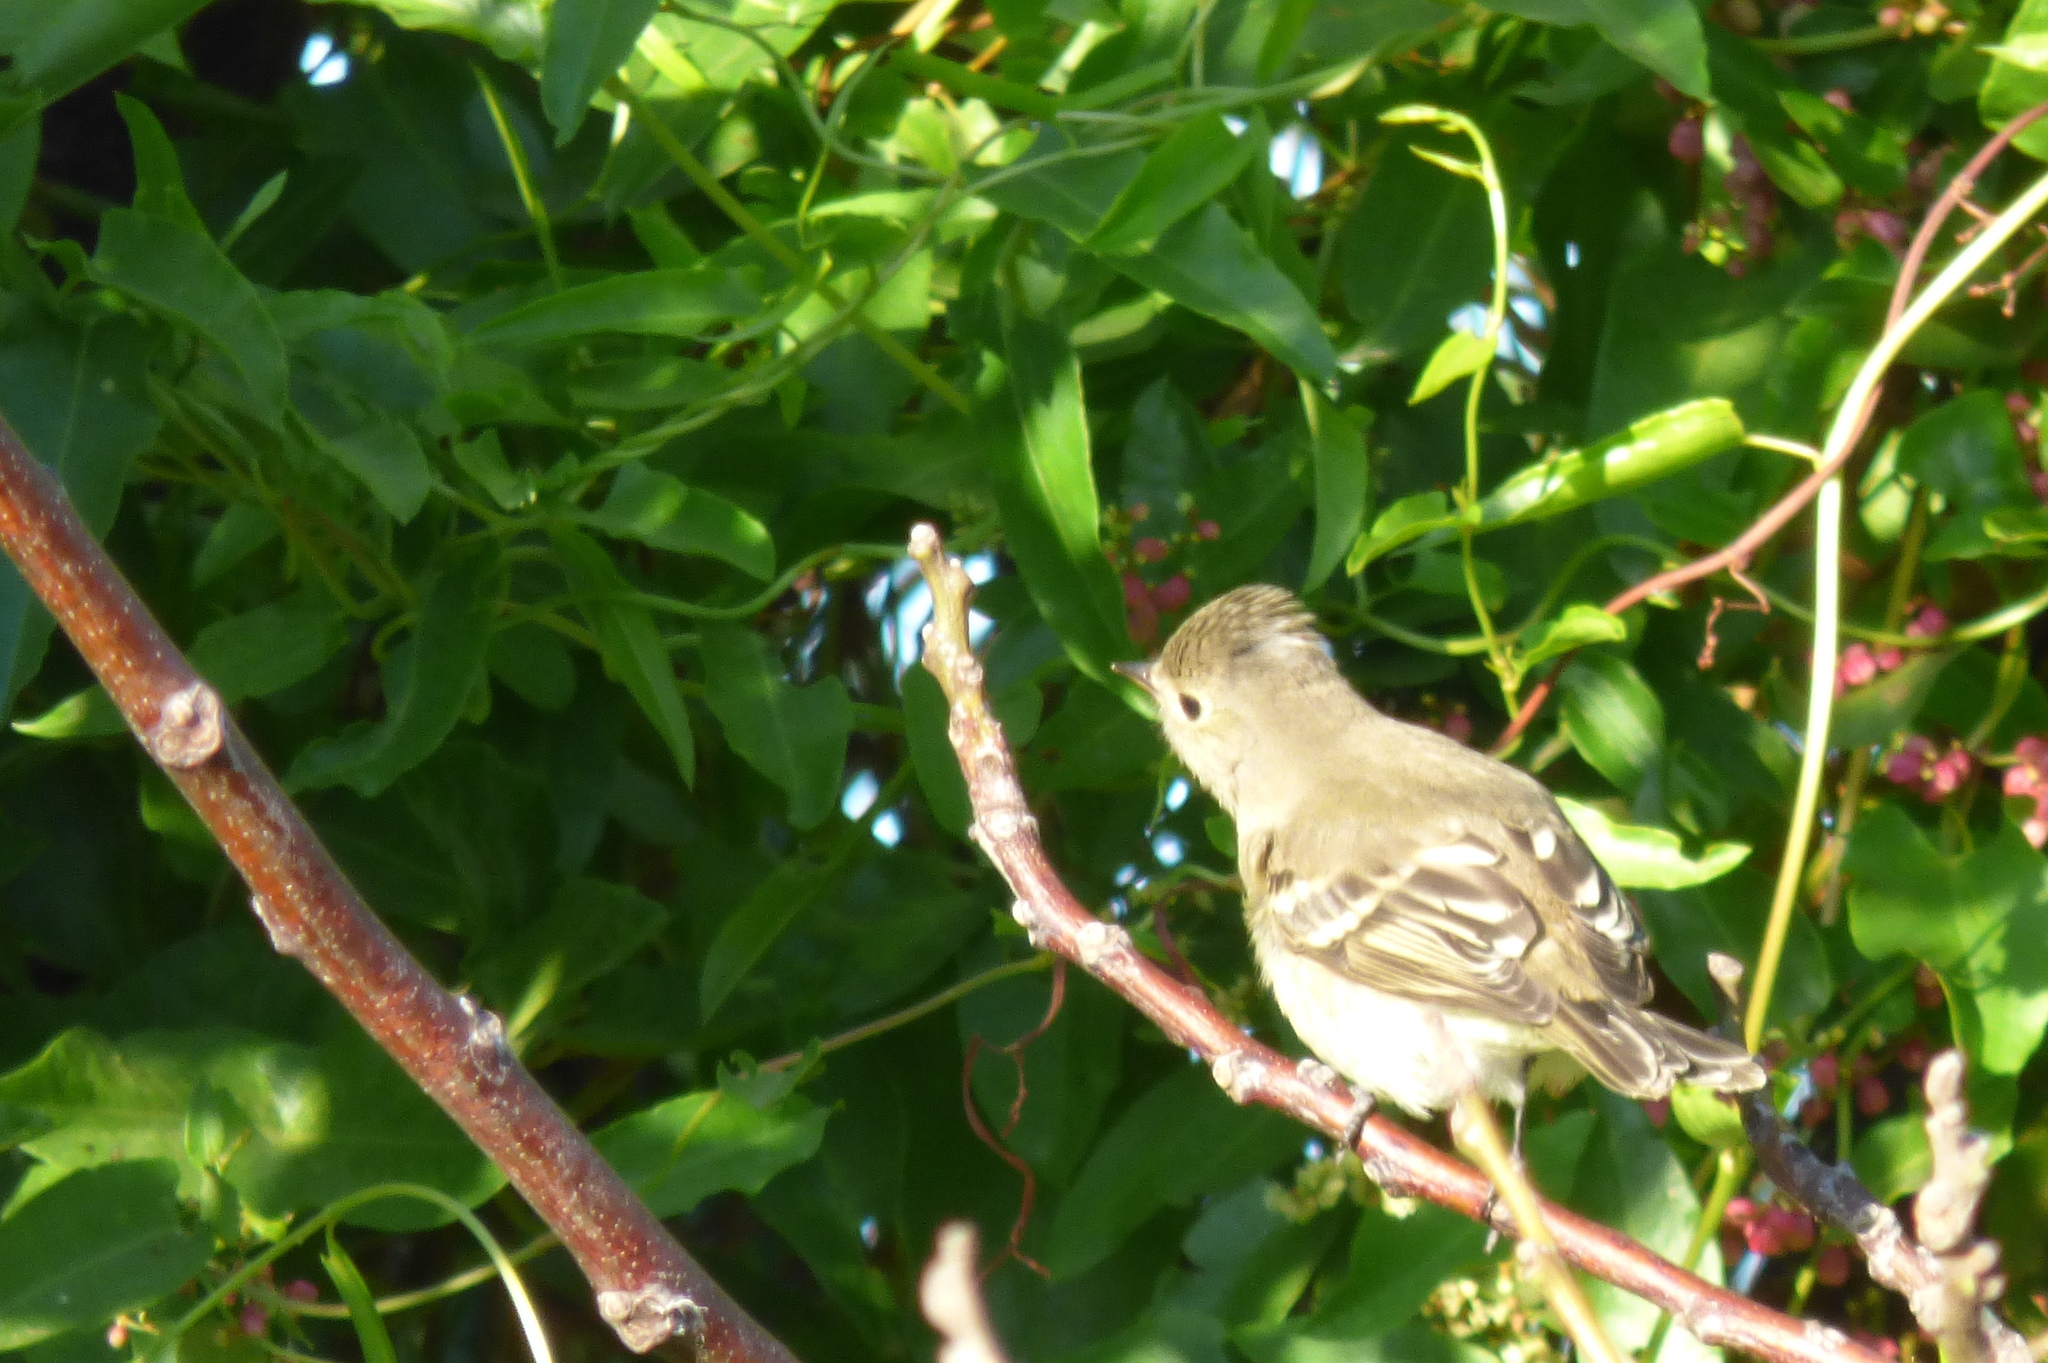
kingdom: Animalia
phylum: Chordata
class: Aves
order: Passeriformes
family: Tyrannidae
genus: Elaenia
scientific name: Elaenia albiceps
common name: White-crested elaenia
